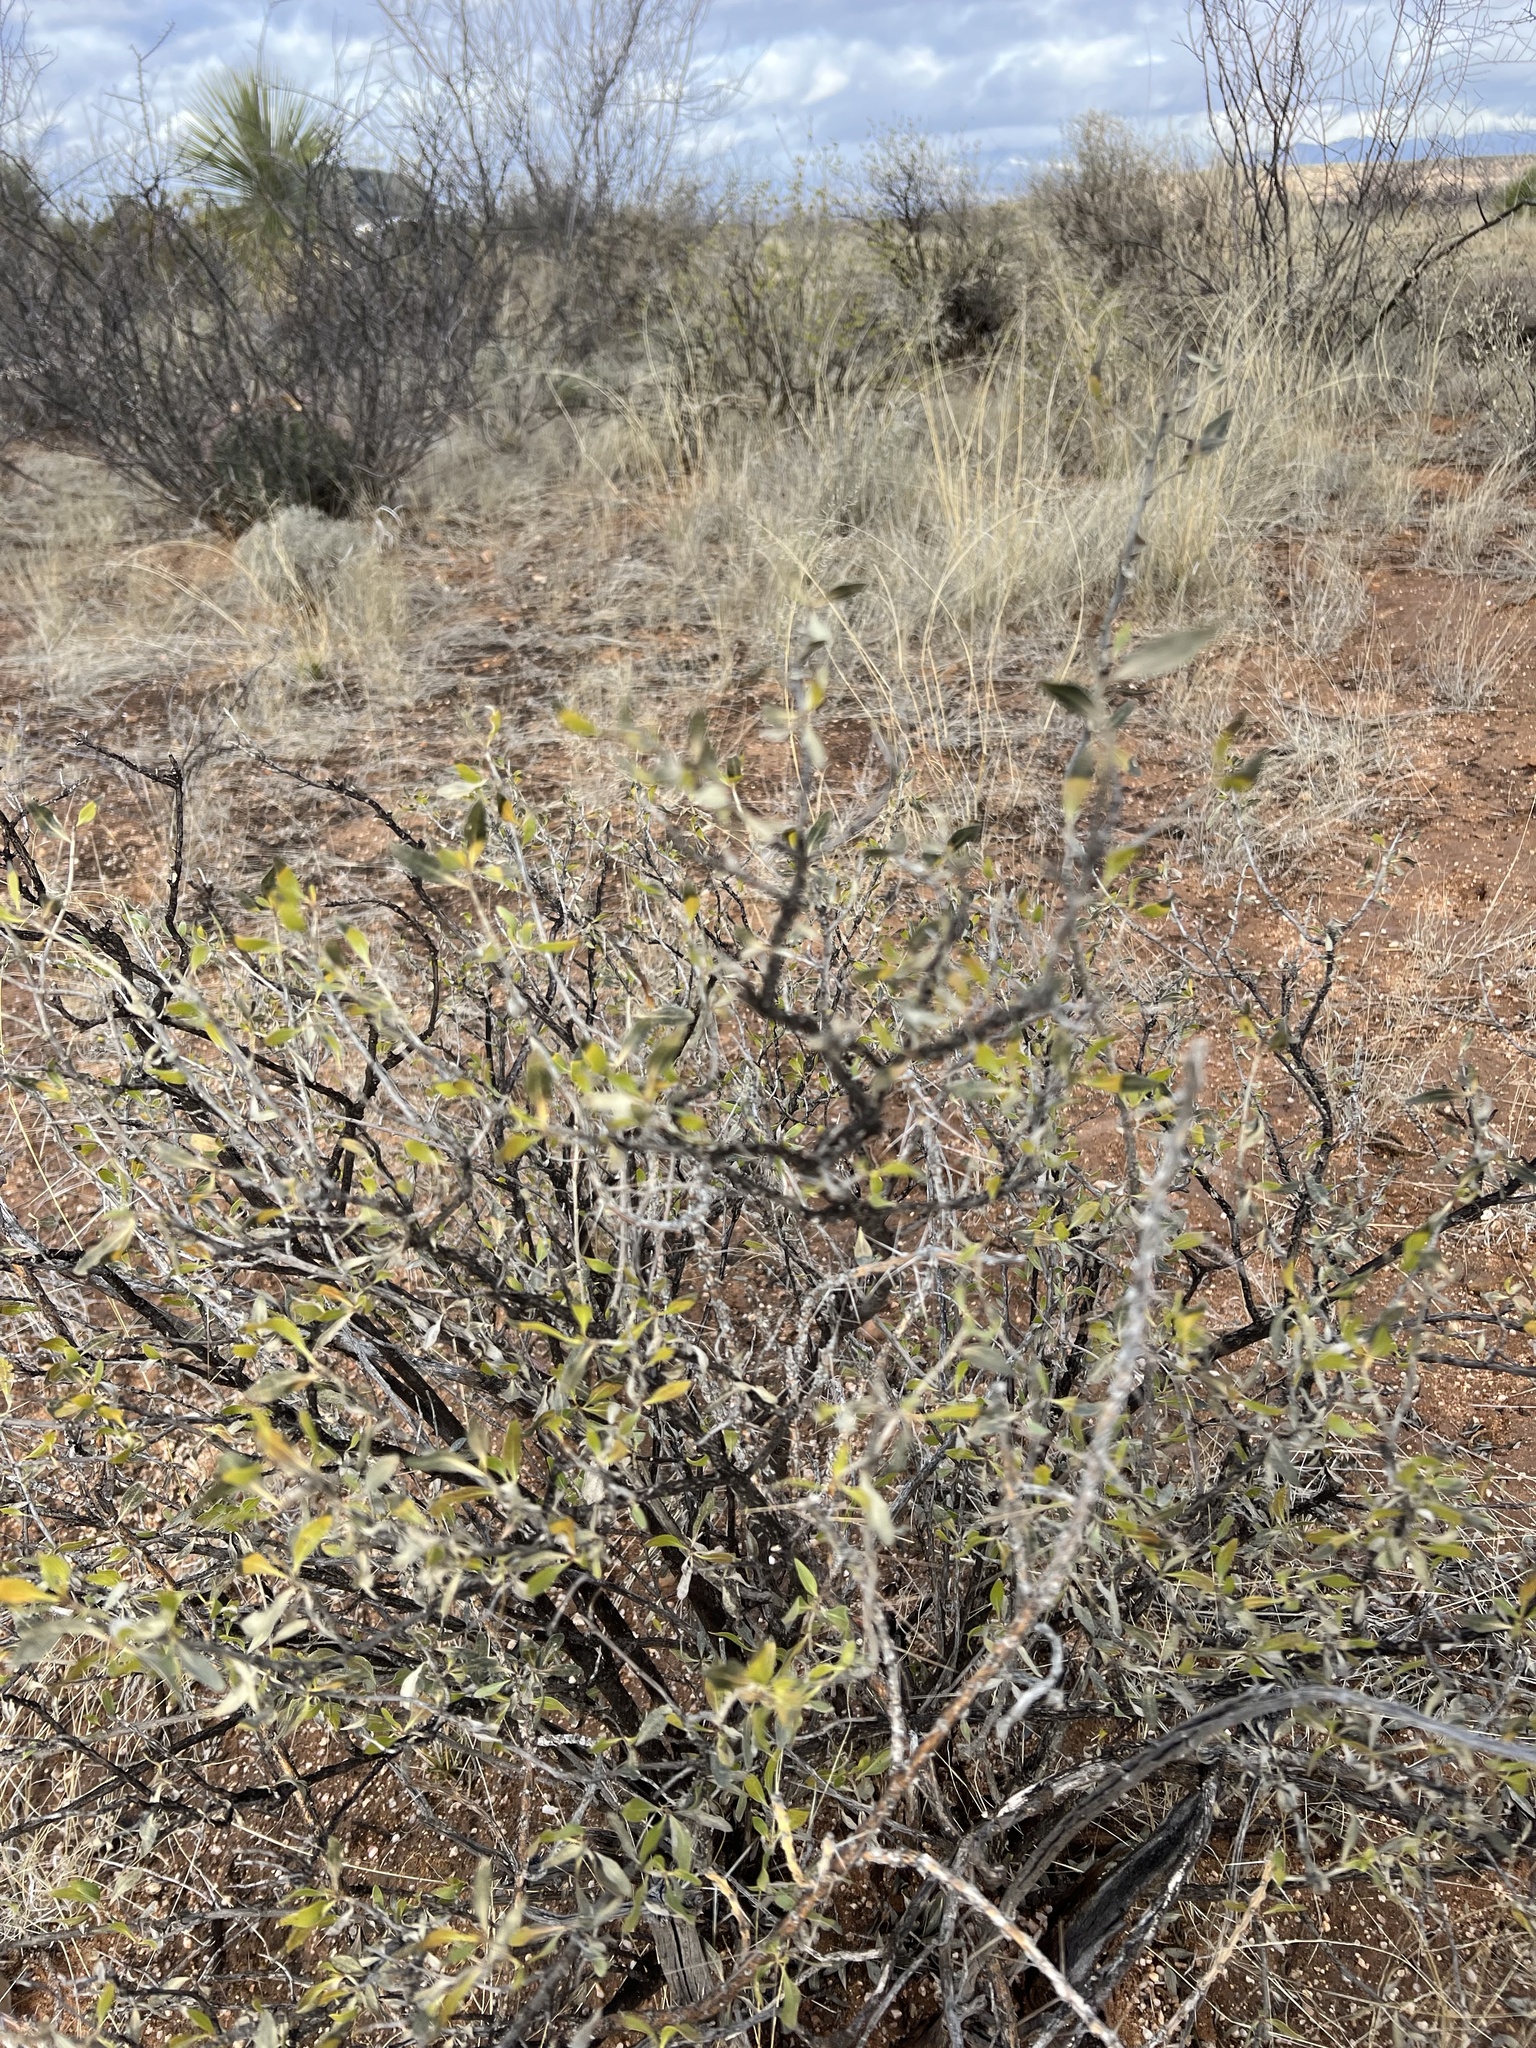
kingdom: Plantae
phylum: Tracheophyta
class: Magnoliopsida
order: Asterales
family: Asteraceae
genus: Flourensia
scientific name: Flourensia cernua
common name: Varnishbush
